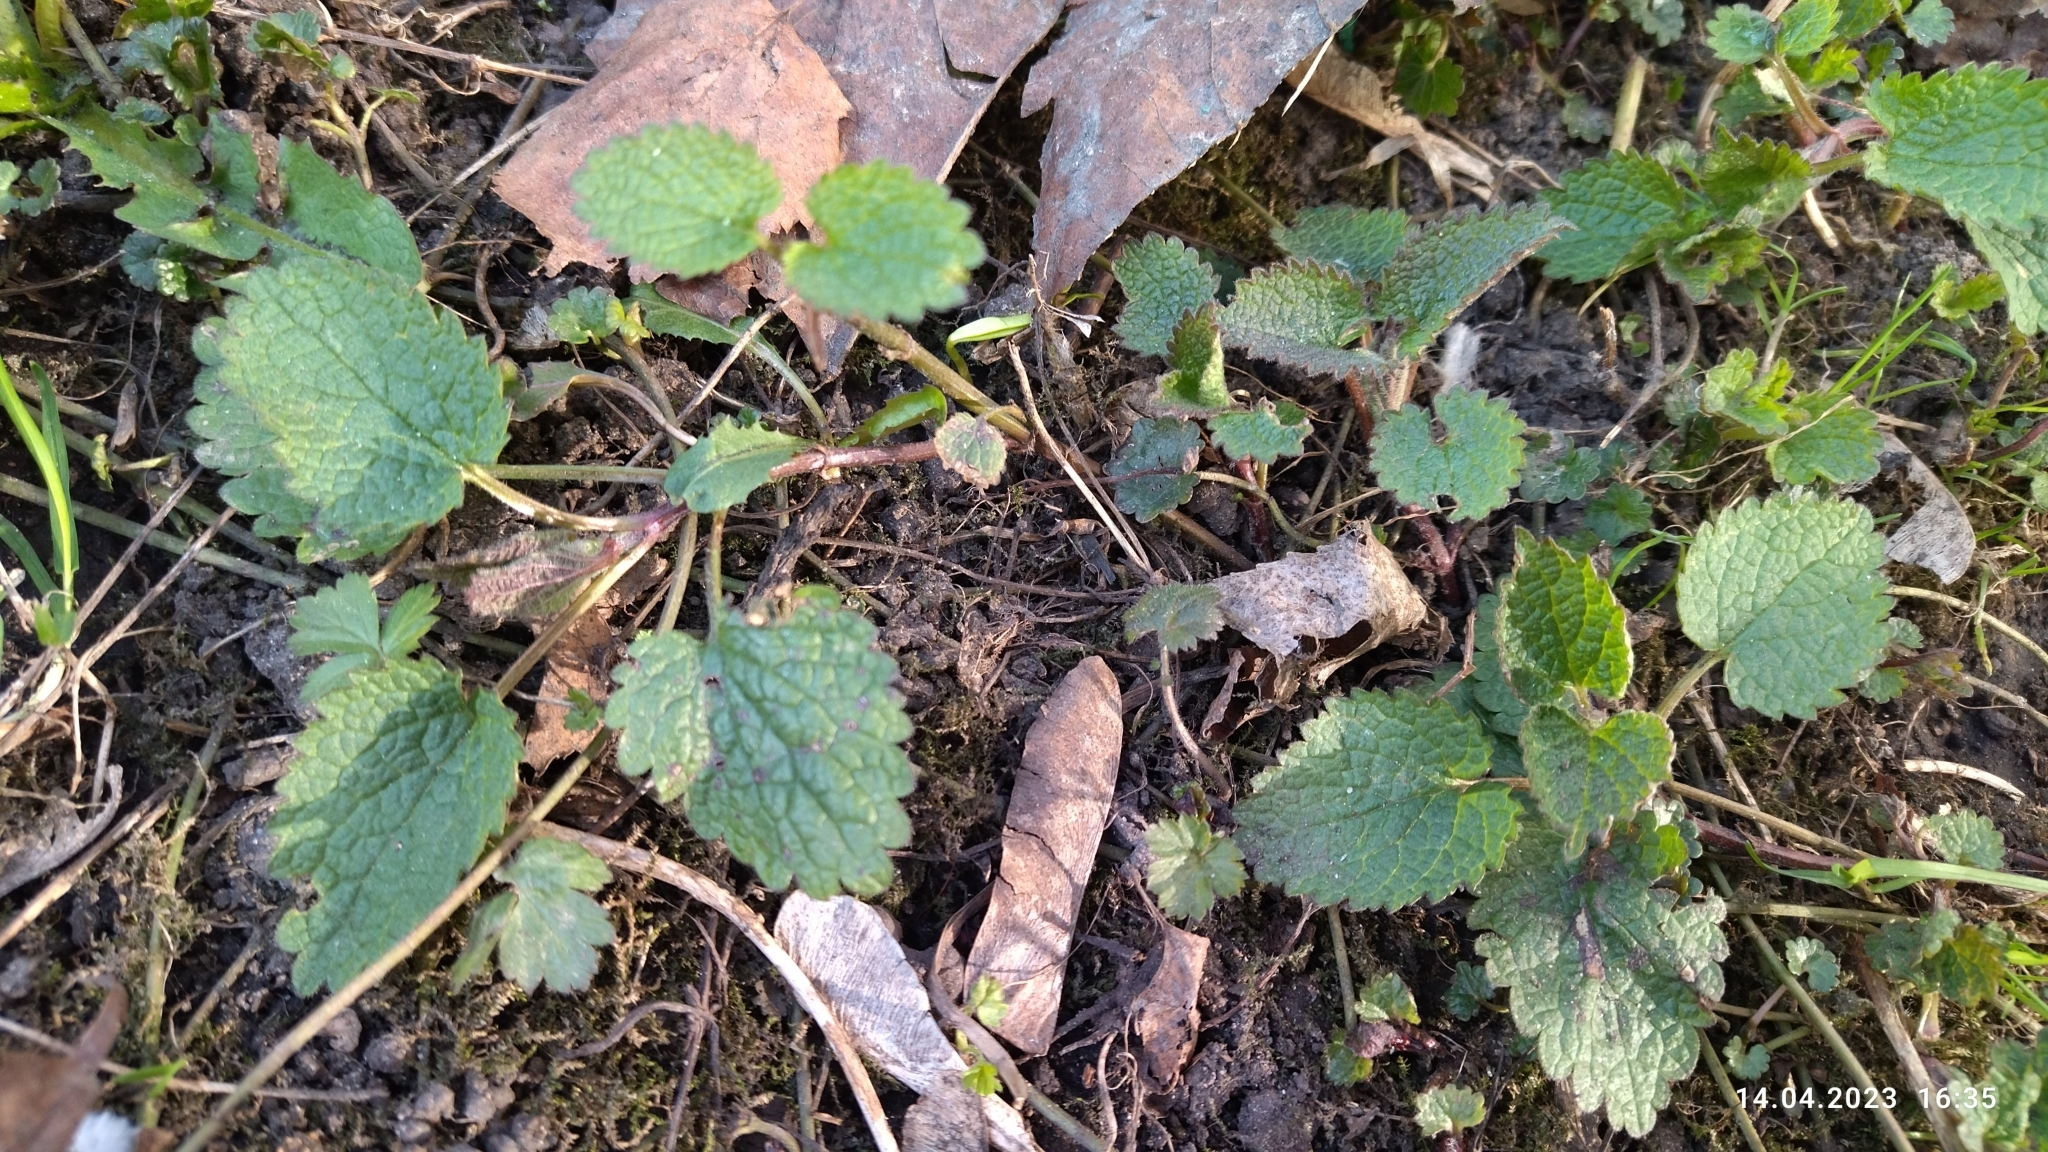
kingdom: Plantae
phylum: Tracheophyta
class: Magnoliopsida
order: Lamiales
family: Lamiaceae
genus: Lamium
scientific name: Lamium album
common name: White dead-nettle
